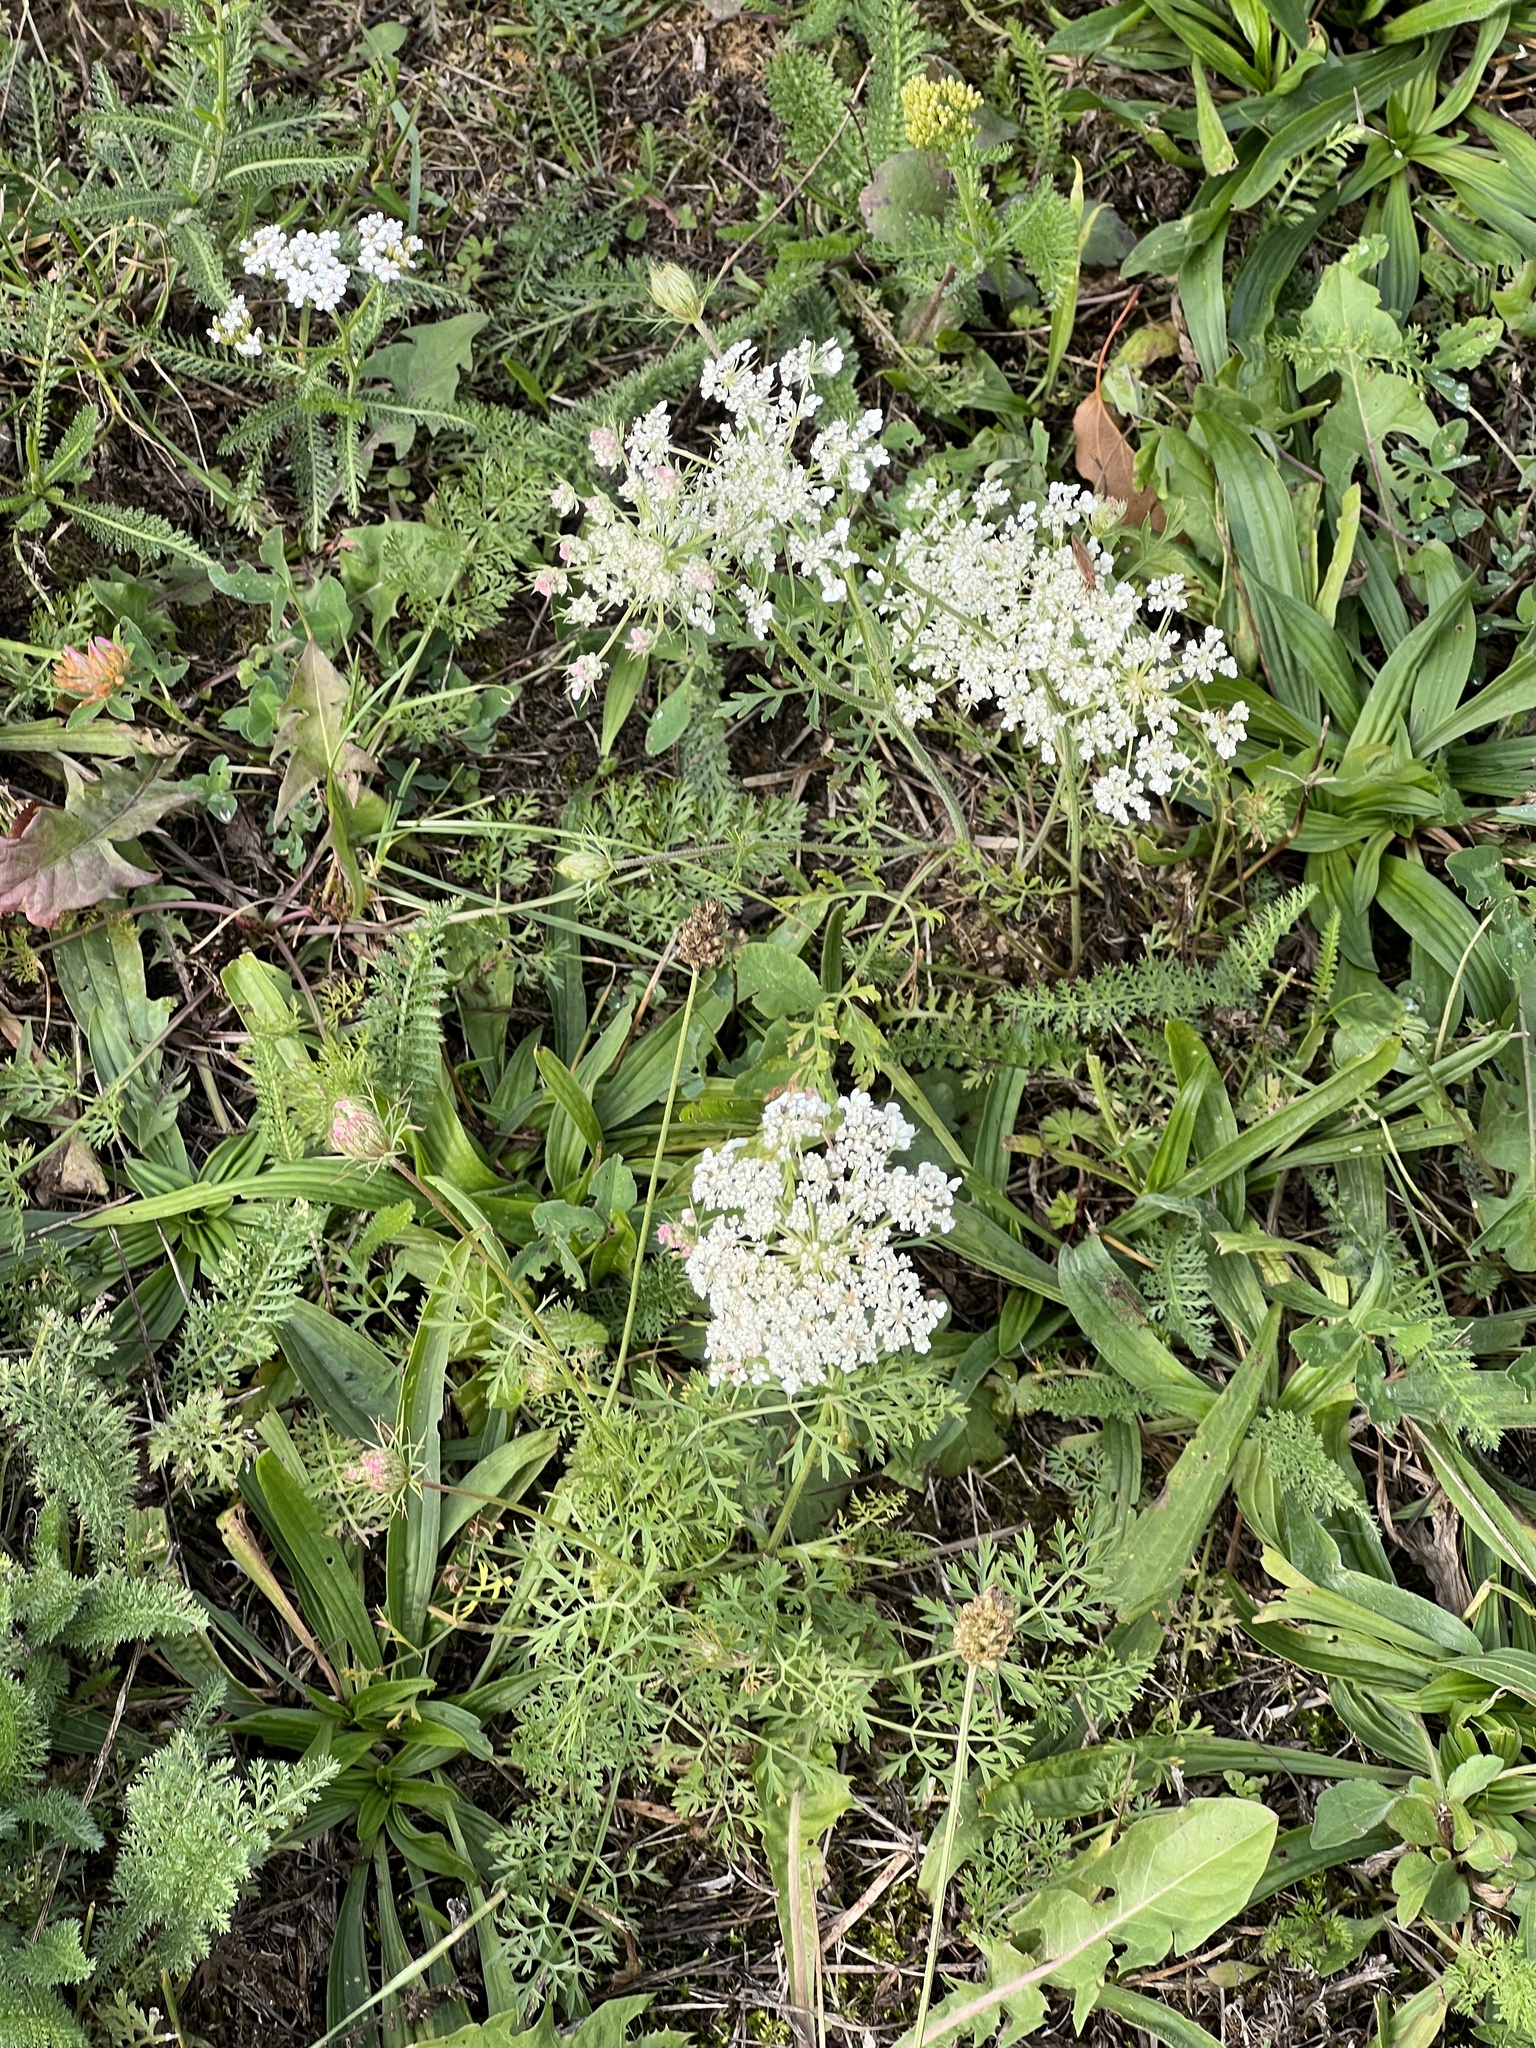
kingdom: Plantae
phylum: Tracheophyta
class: Magnoliopsida
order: Apiales
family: Apiaceae
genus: Daucus
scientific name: Daucus carota
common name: Wild carrot
